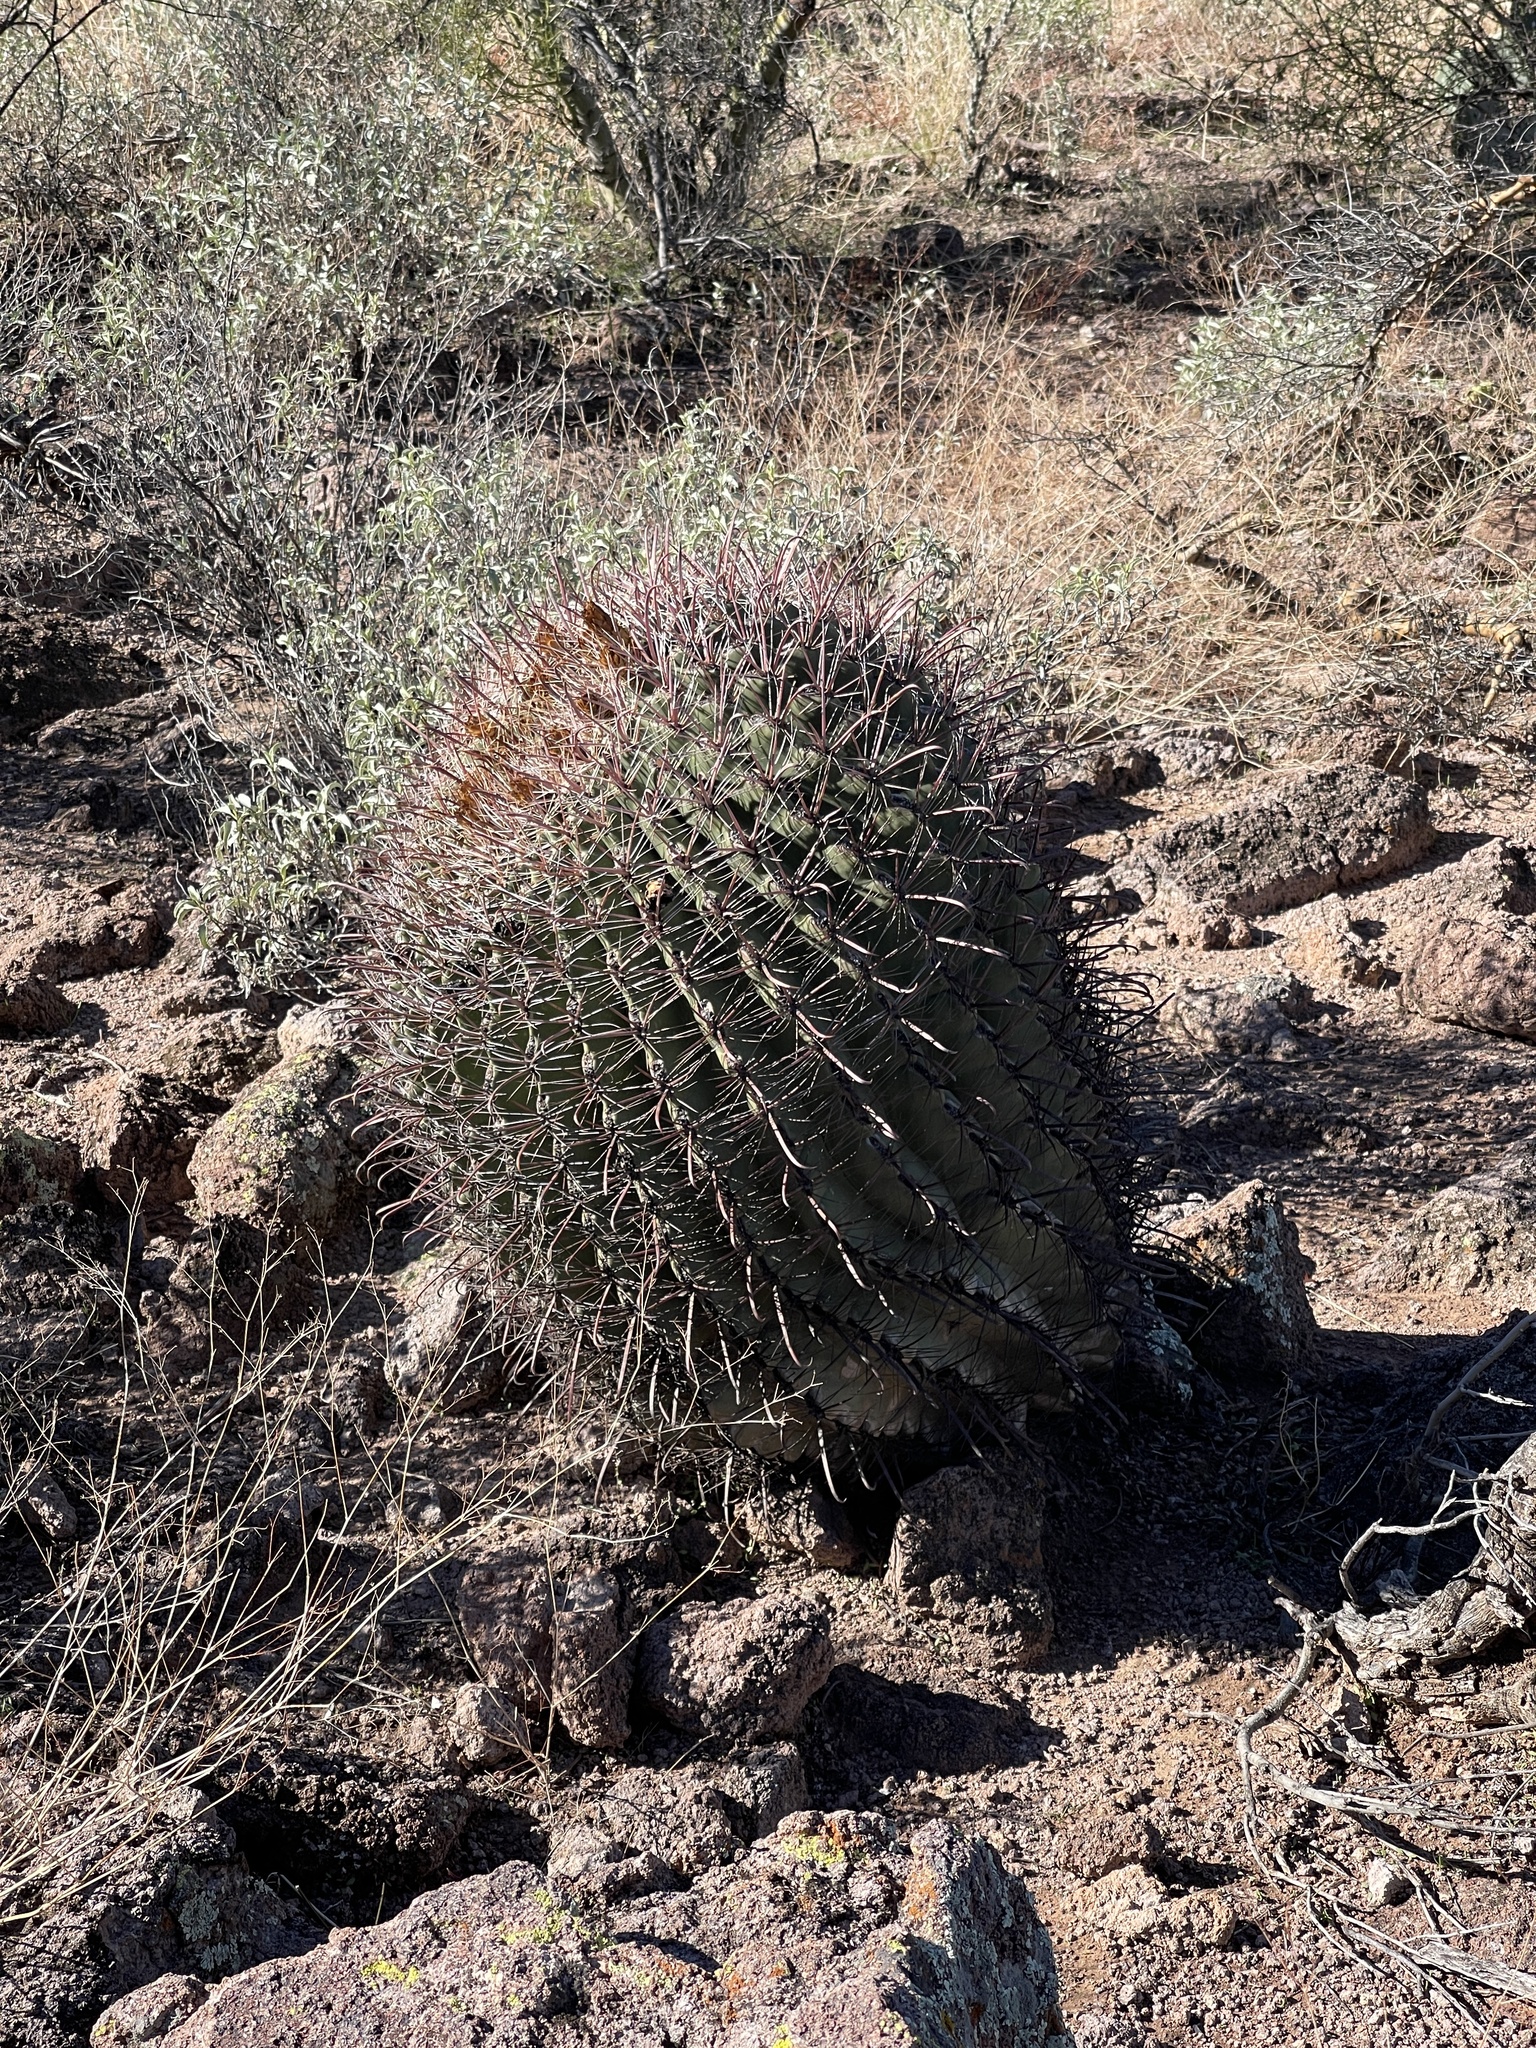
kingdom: Plantae
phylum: Tracheophyta
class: Magnoliopsida
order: Caryophyllales
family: Cactaceae
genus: Ferocactus
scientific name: Ferocactus wislizeni
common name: Candy barrel cactus
